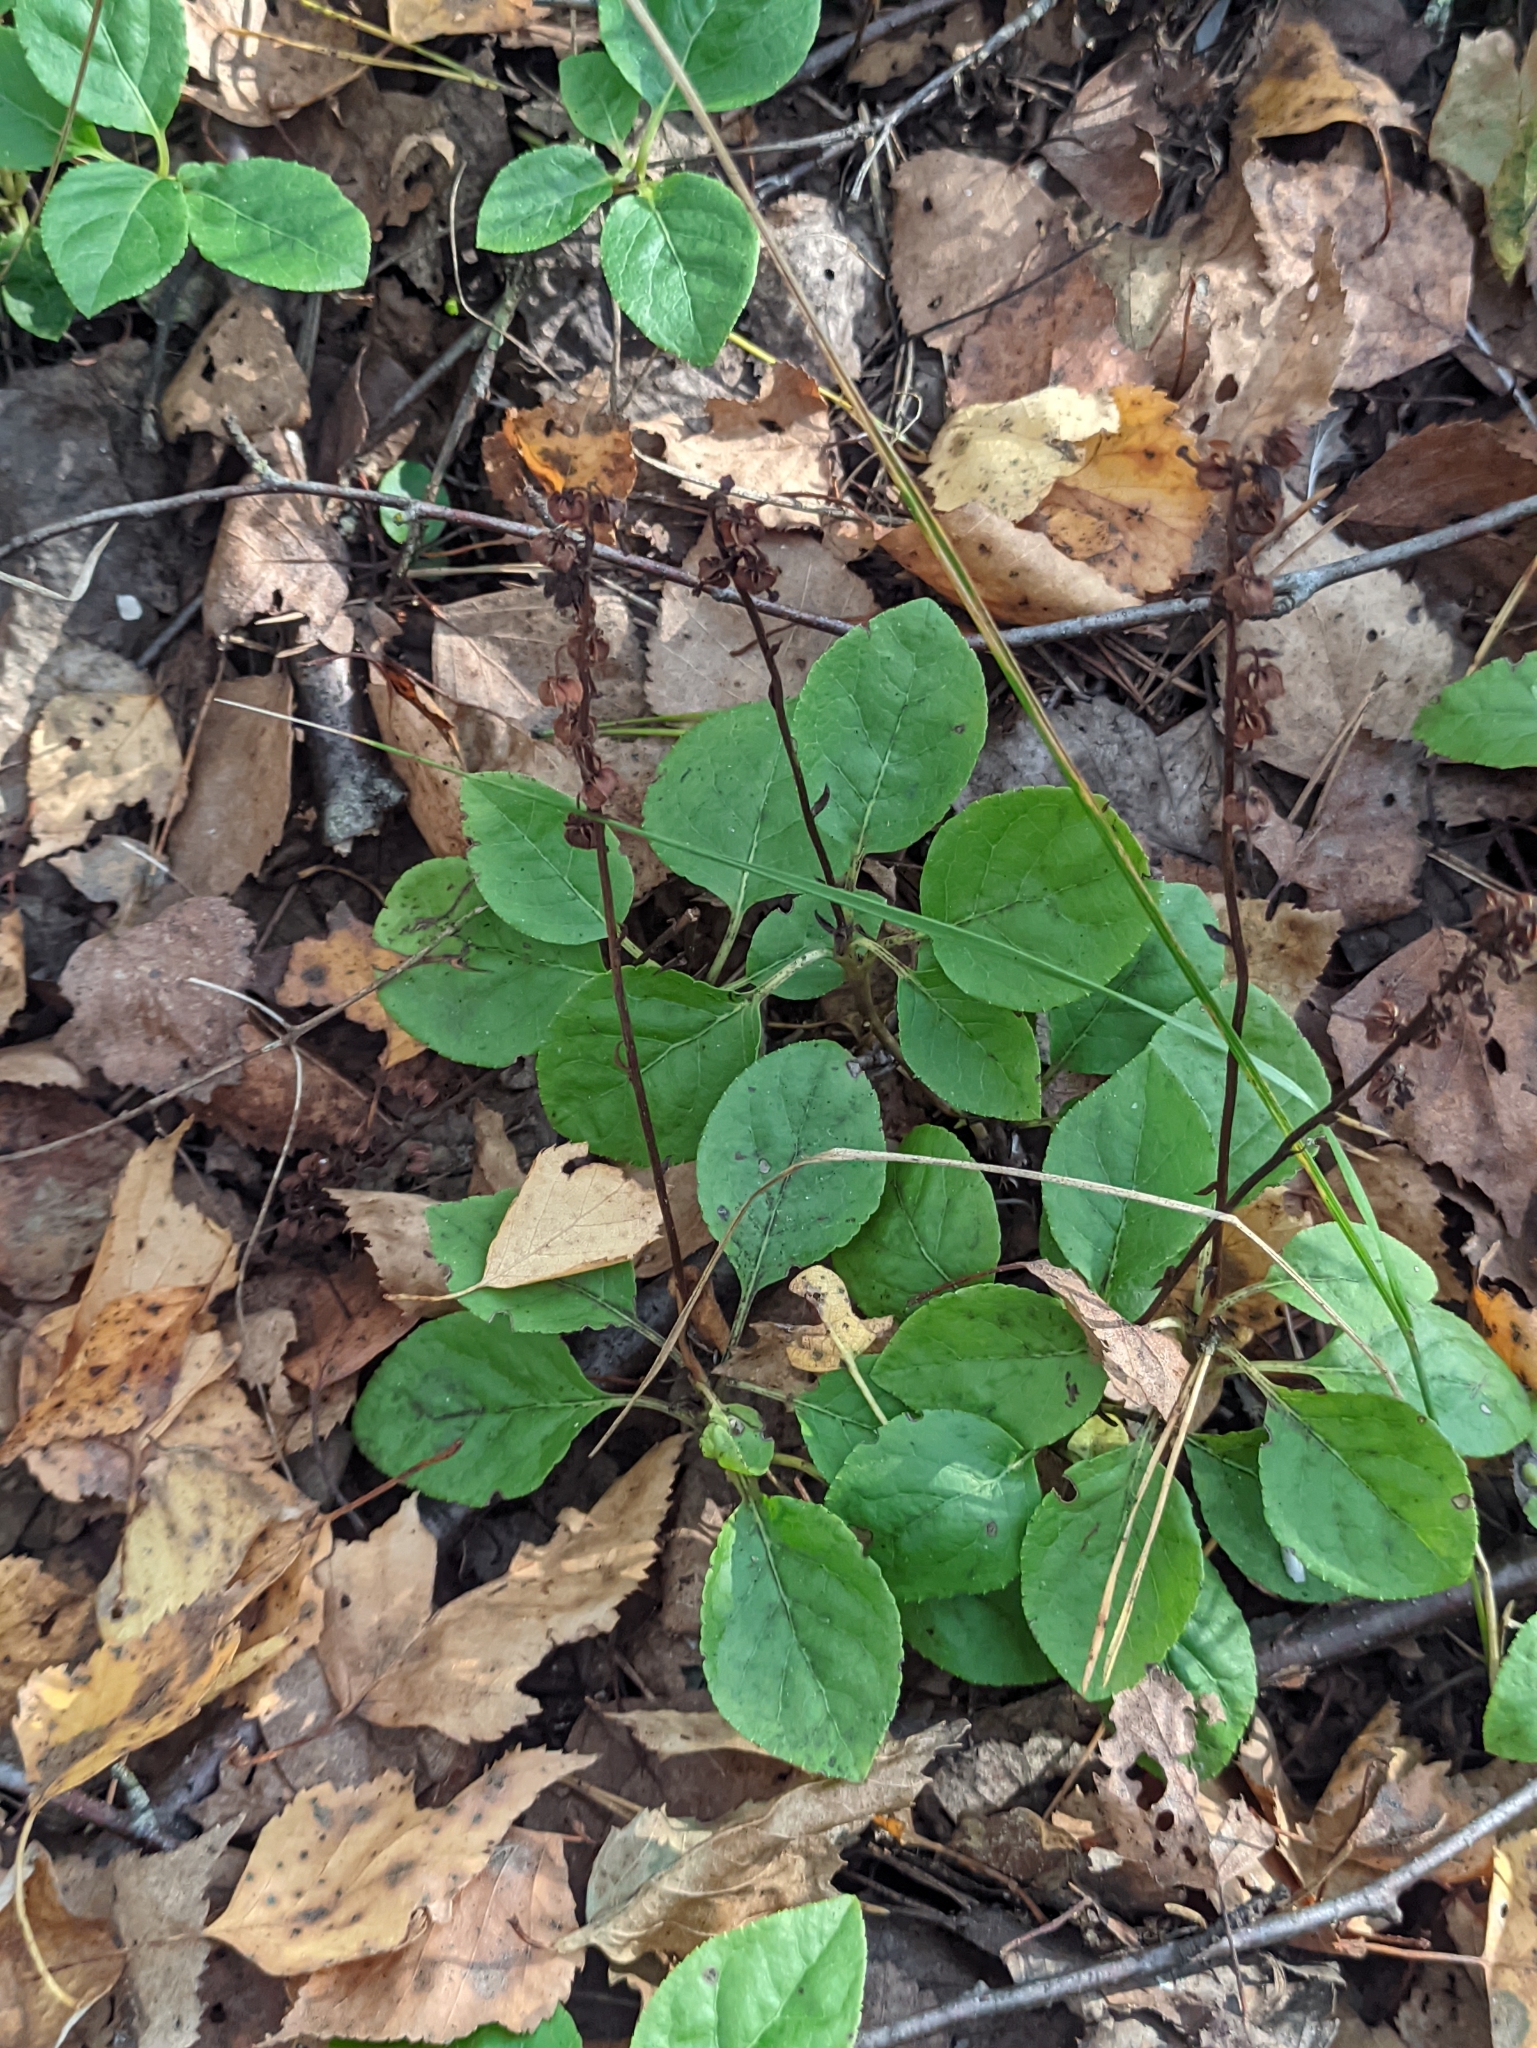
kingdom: Plantae
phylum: Tracheophyta
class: Magnoliopsida
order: Ericales
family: Ericaceae
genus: Orthilia
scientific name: Orthilia secunda
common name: One-sided orthilia
